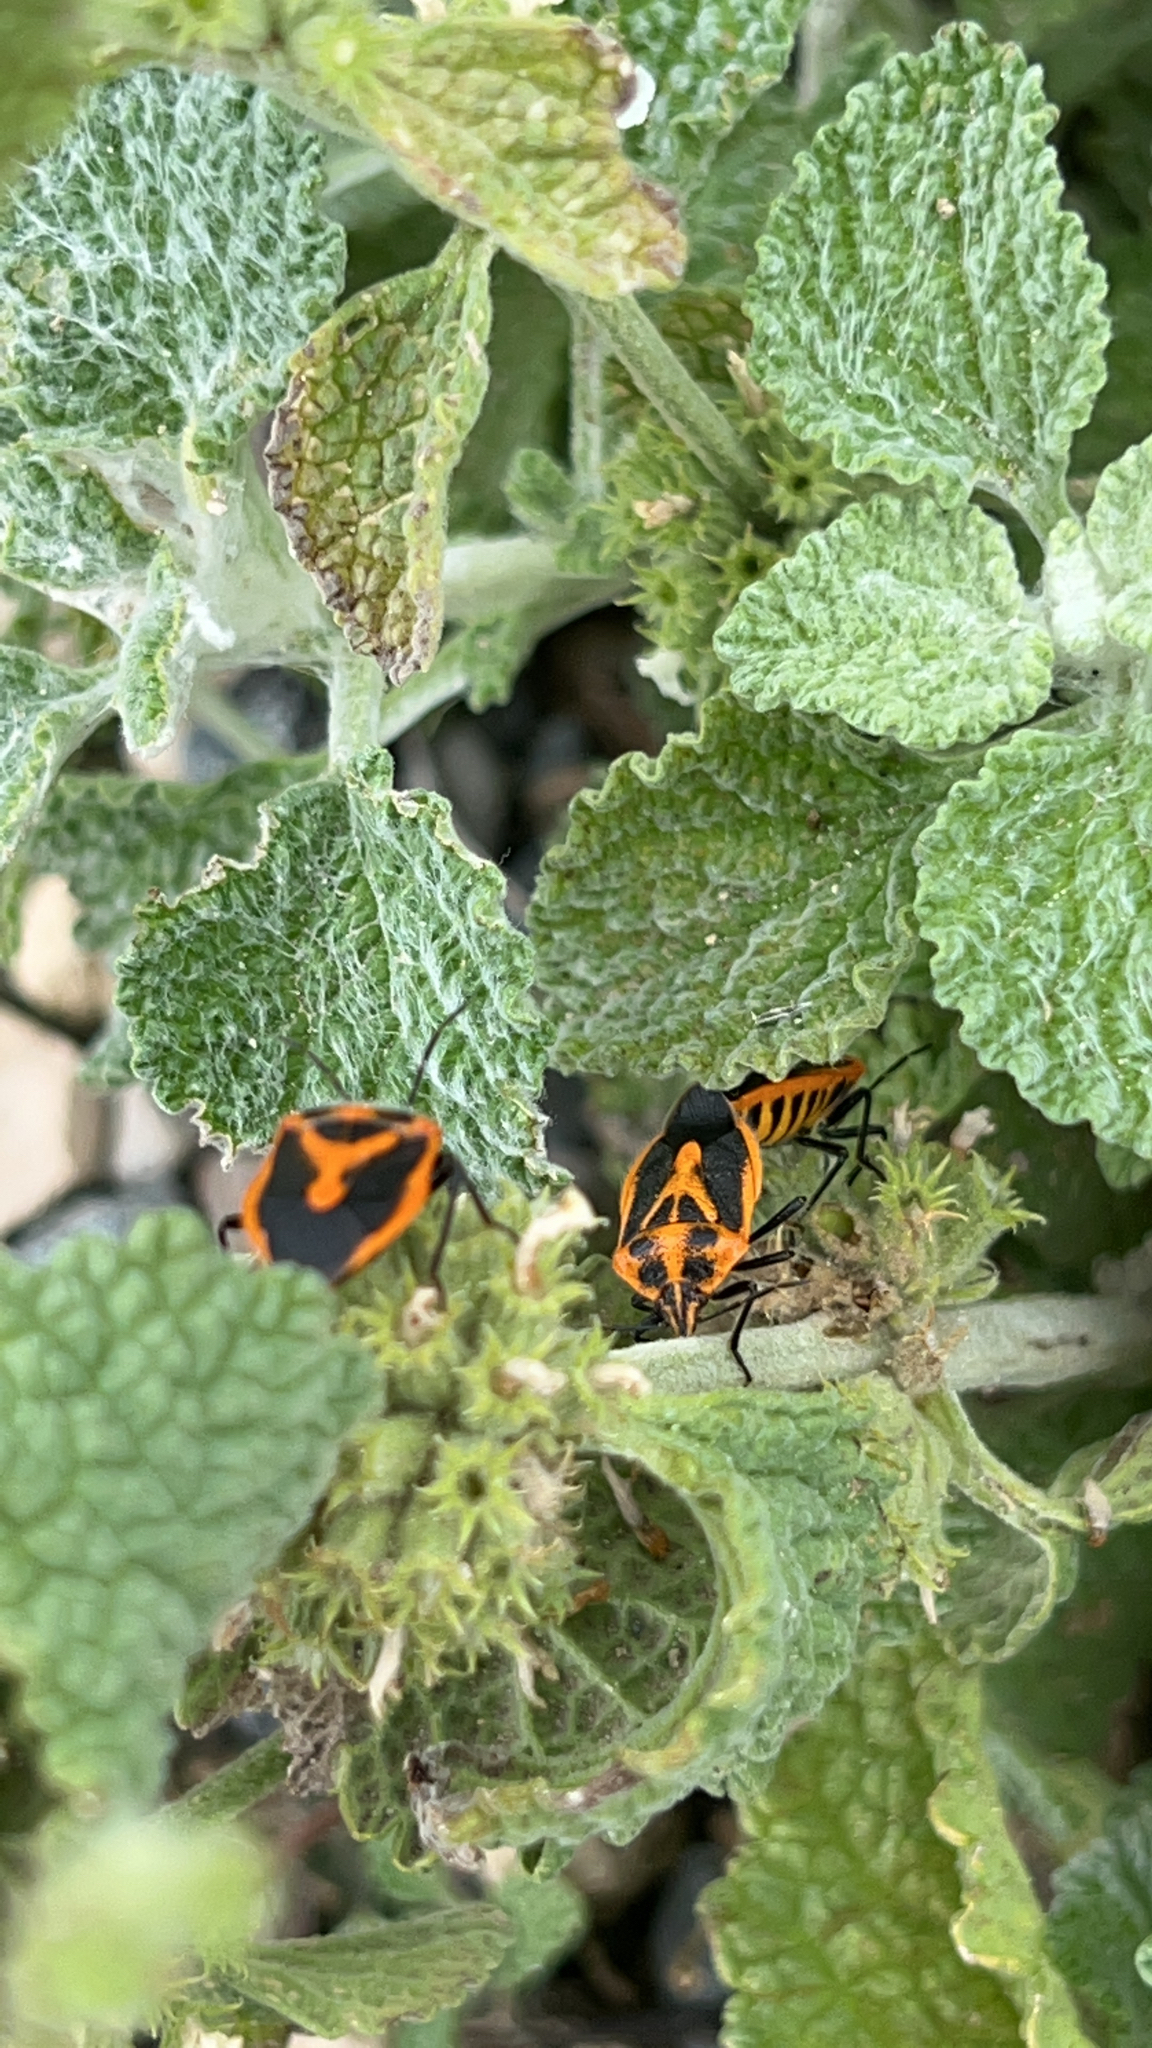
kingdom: Animalia
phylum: Arthropoda
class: Insecta
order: Hemiptera
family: Pentatomidae
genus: Agonoscelis
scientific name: Agonoscelis rutila
